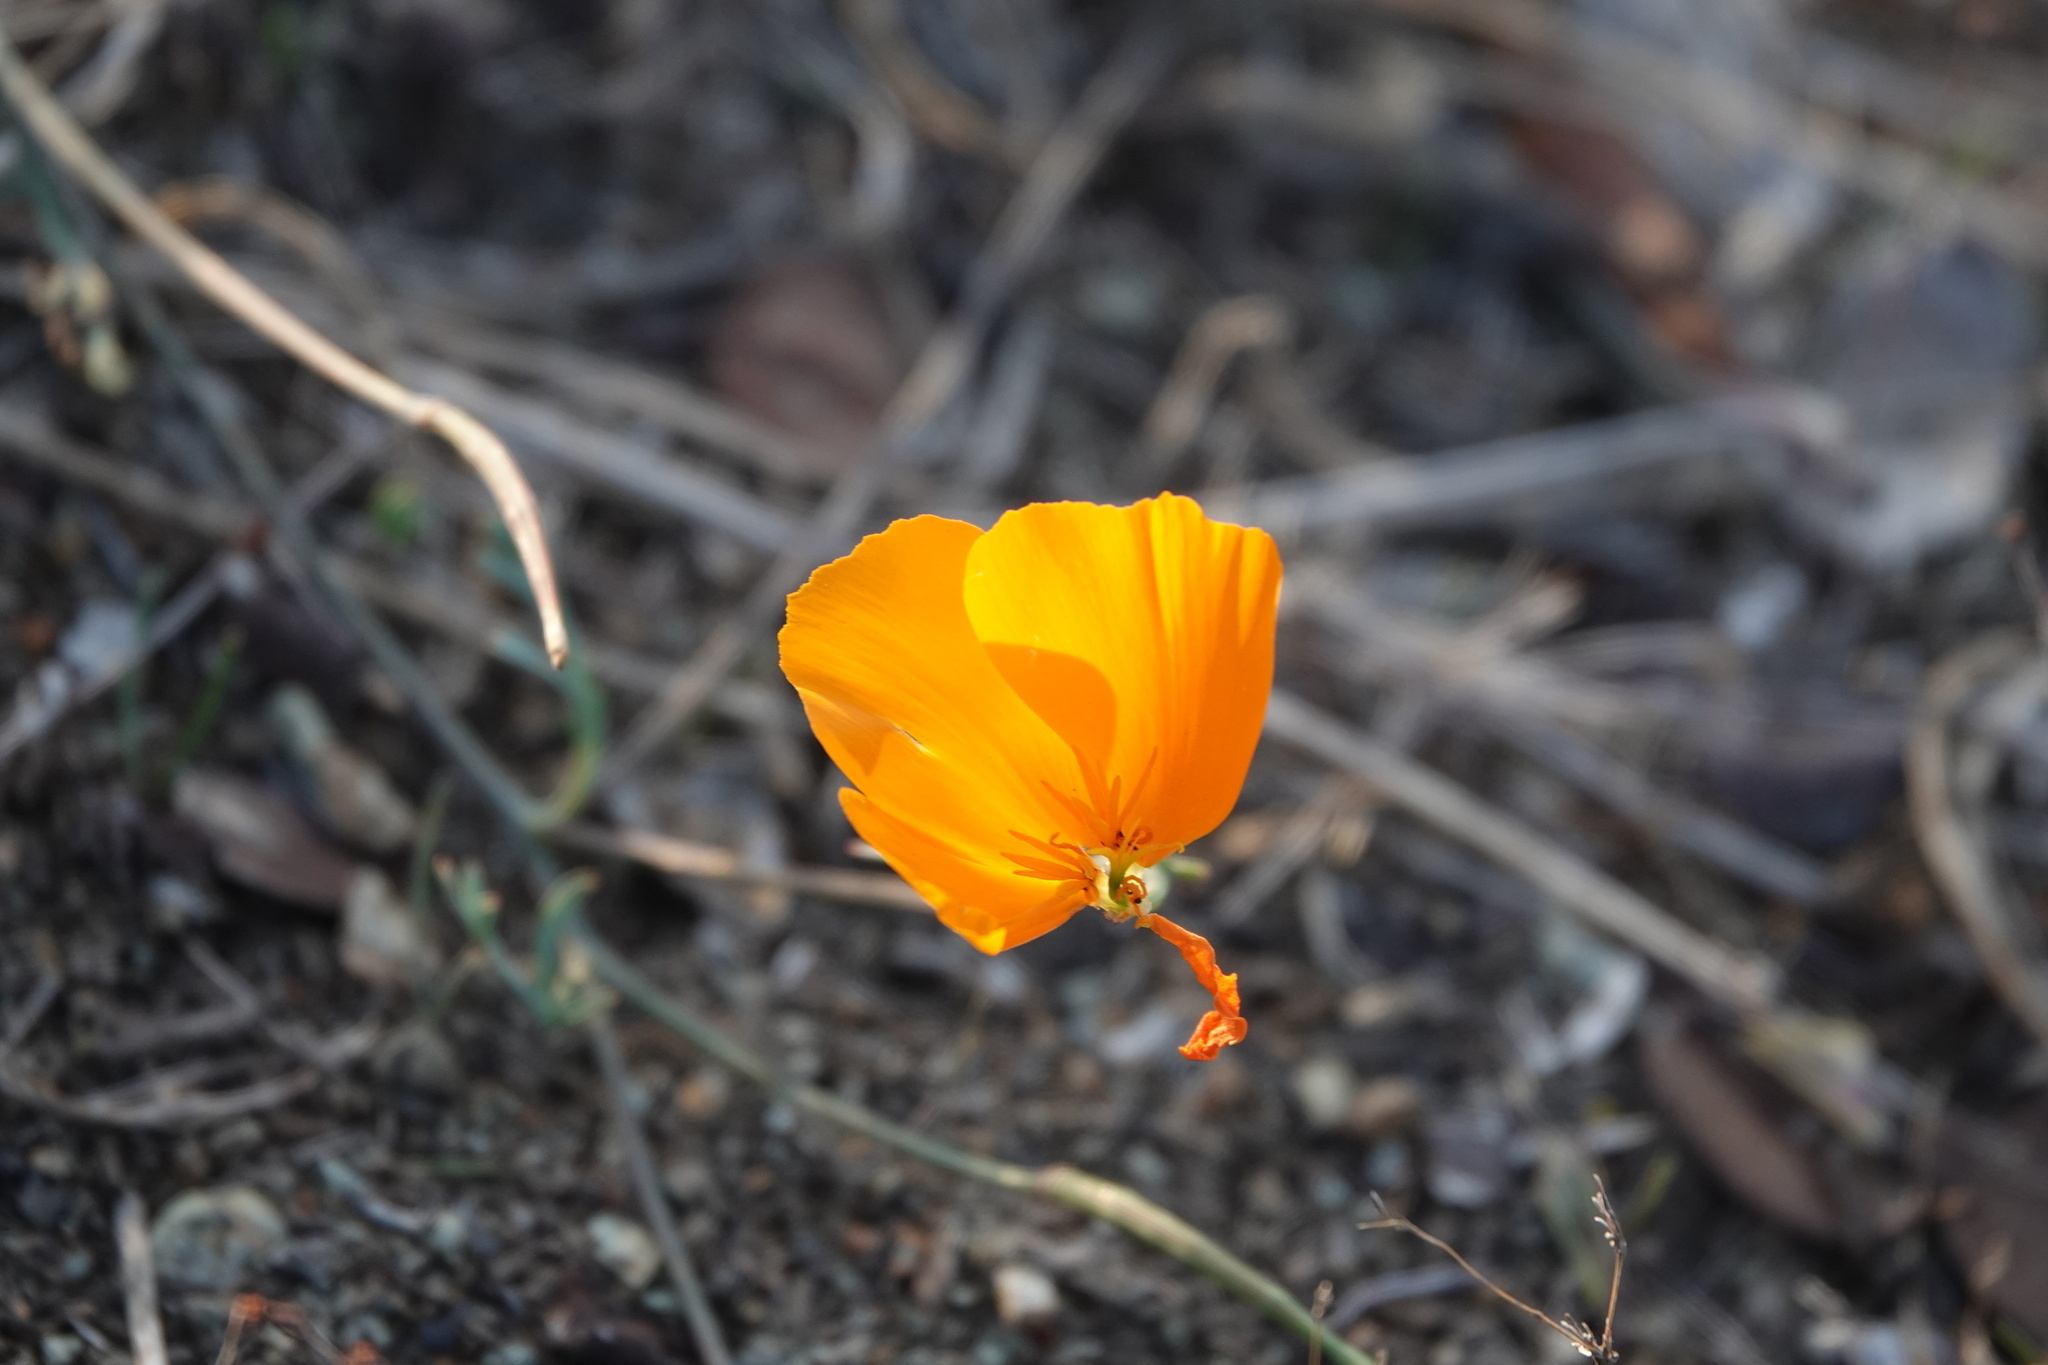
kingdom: Plantae
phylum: Tracheophyta
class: Magnoliopsida
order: Ranunculales
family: Papaveraceae
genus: Eschscholzia
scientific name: Eschscholzia californica
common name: California poppy
